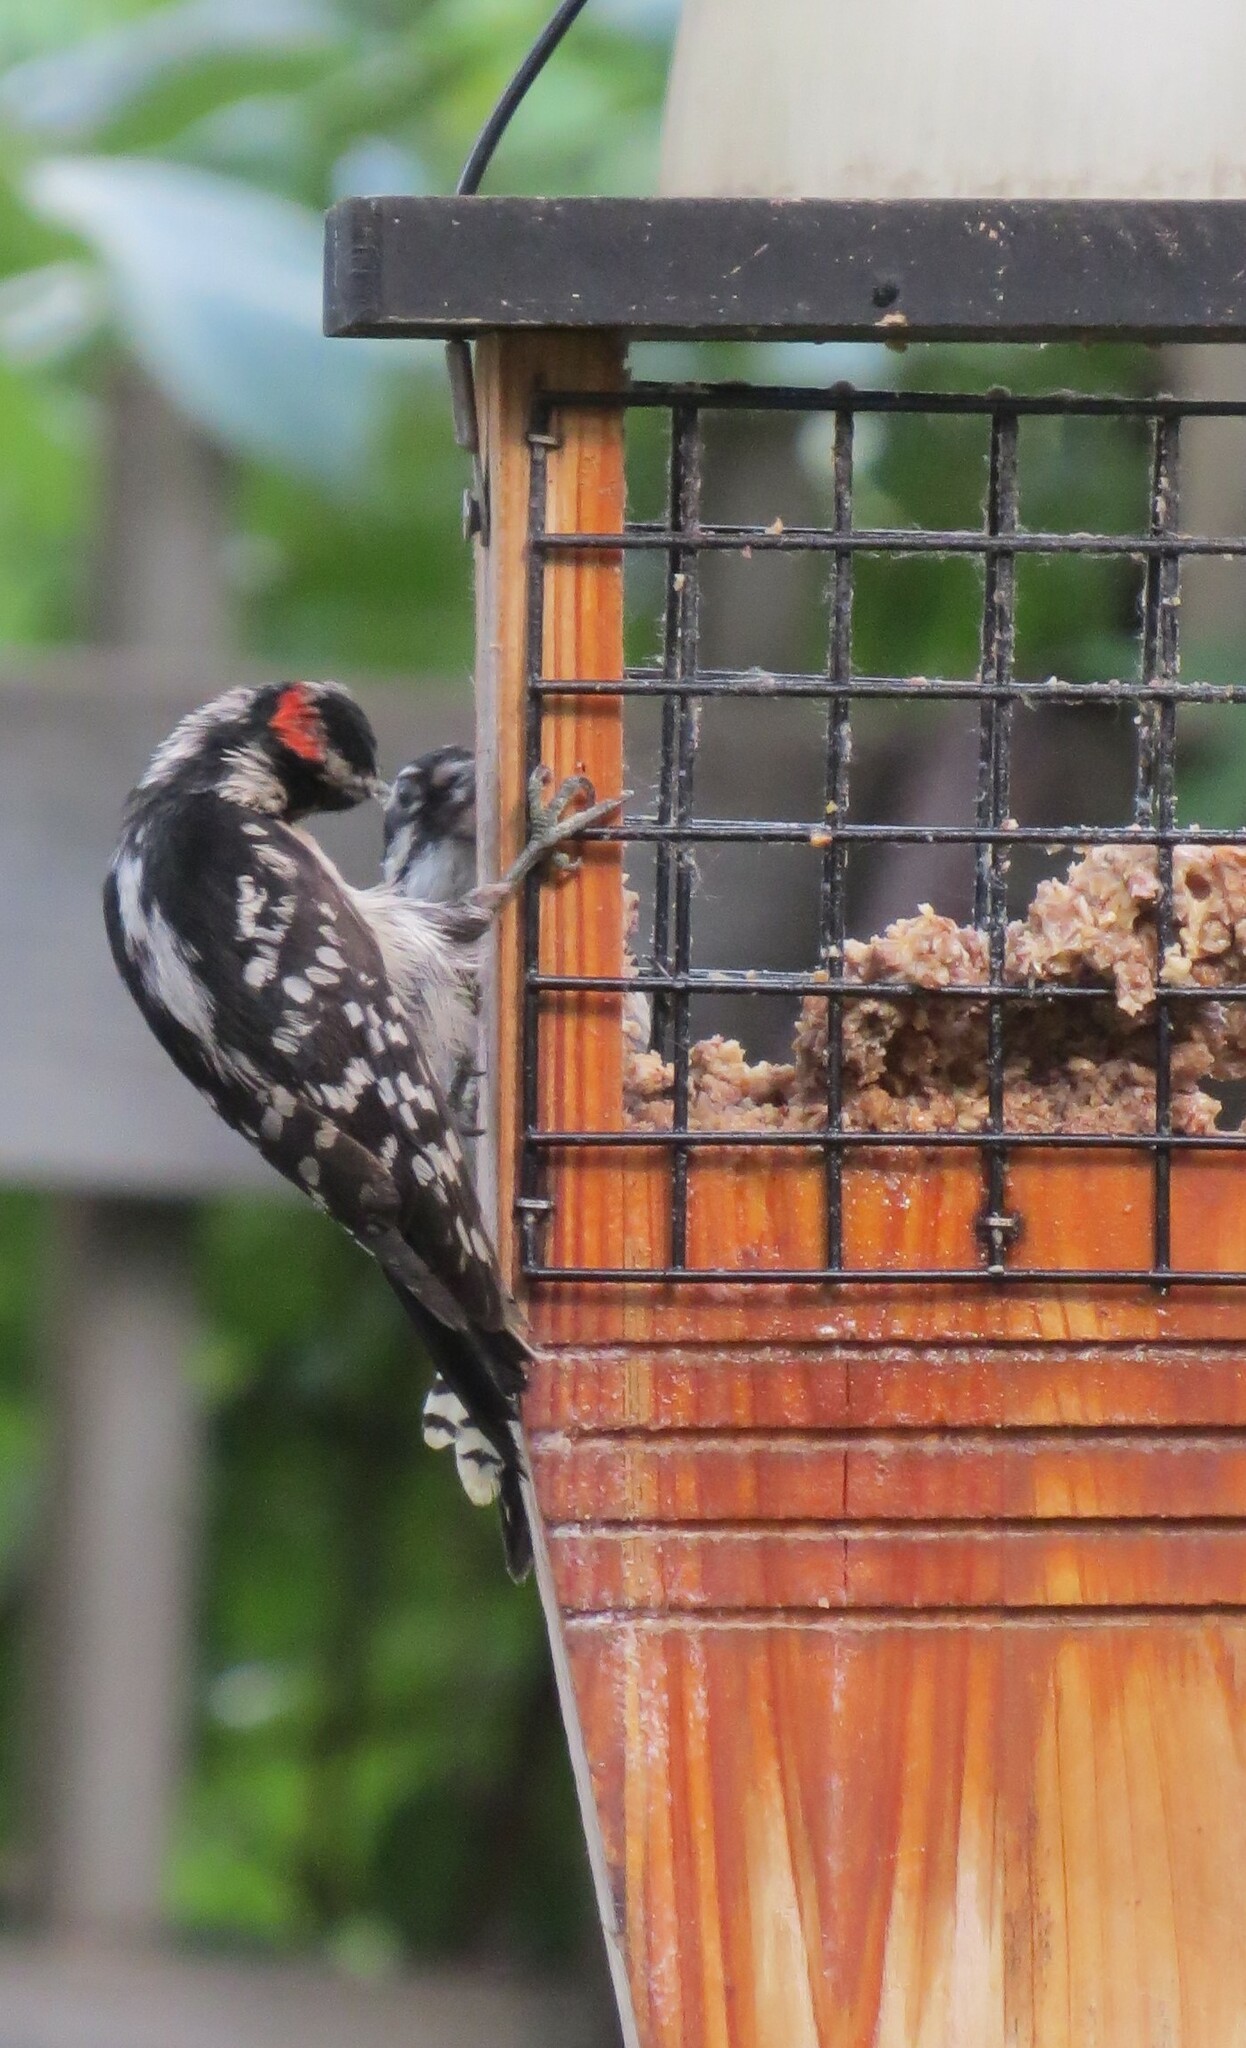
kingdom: Animalia
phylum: Chordata
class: Aves
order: Piciformes
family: Picidae
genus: Dryobates
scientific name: Dryobates pubescens
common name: Downy woodpecker
